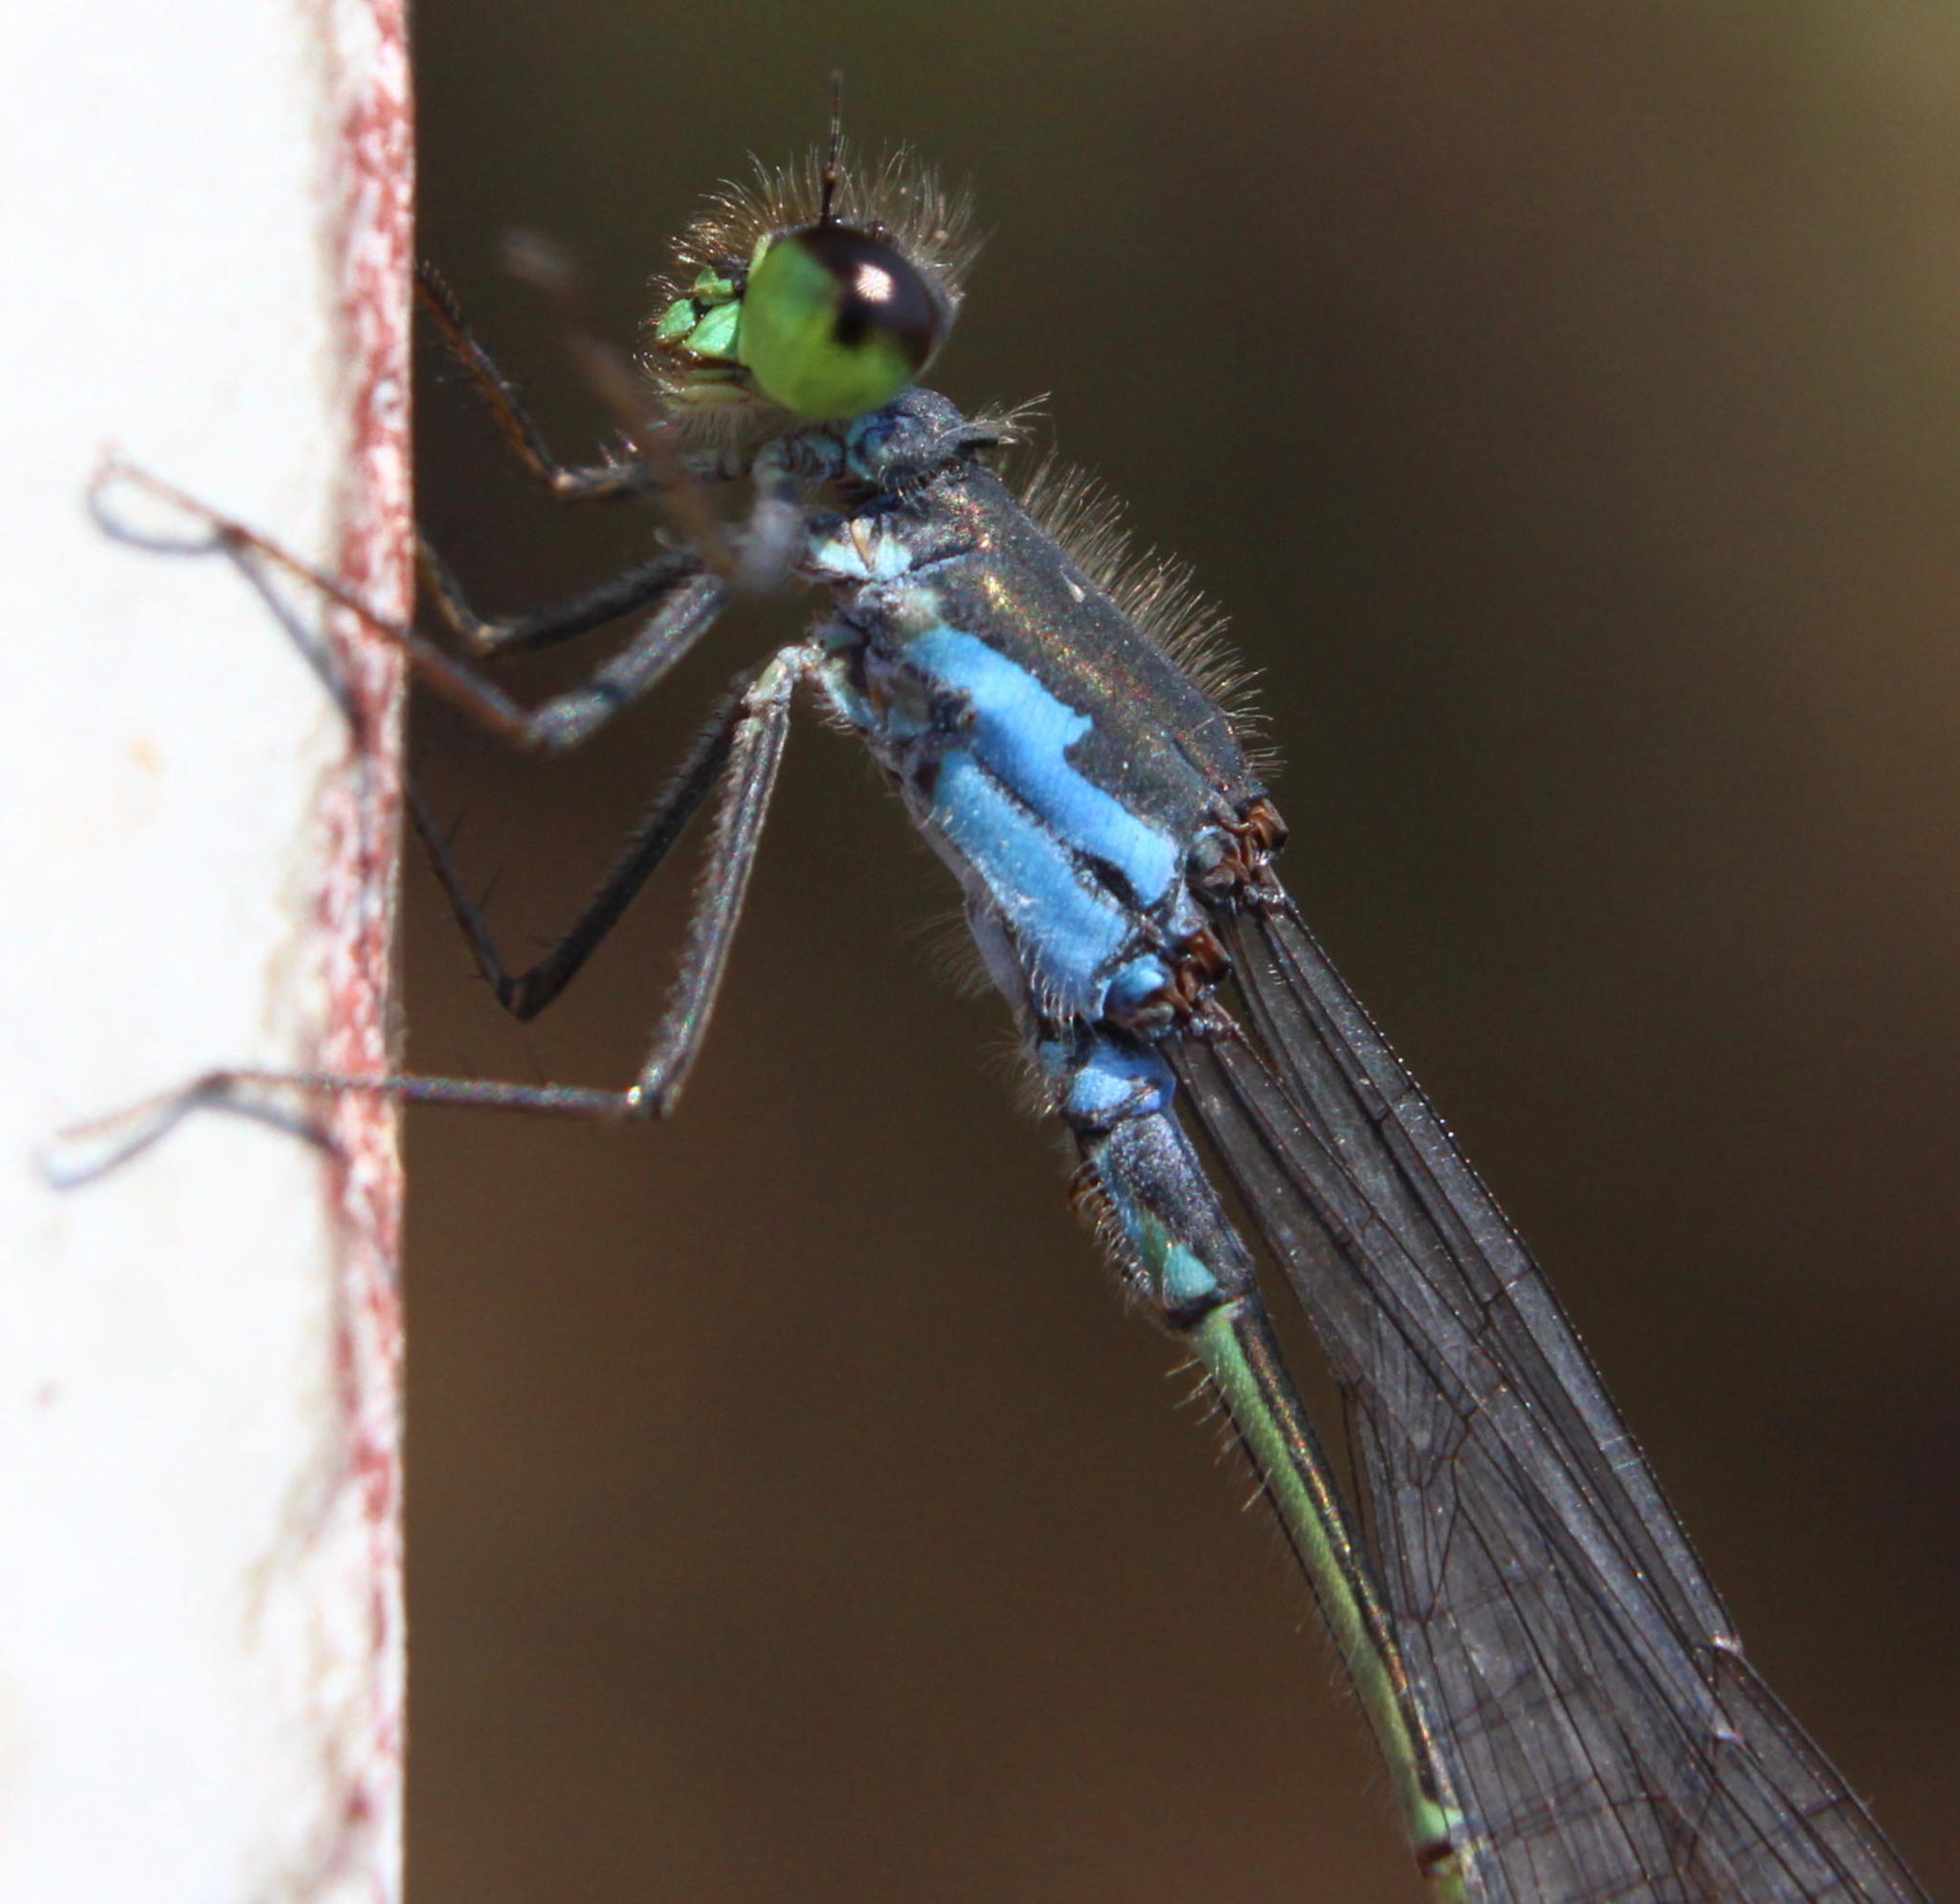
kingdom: Animalia
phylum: Arthropoda
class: Insecta
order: Odonata
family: Coenagrionidae
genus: Pseudagrion
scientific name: Pseudagrion deningi
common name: Dening's sprite
